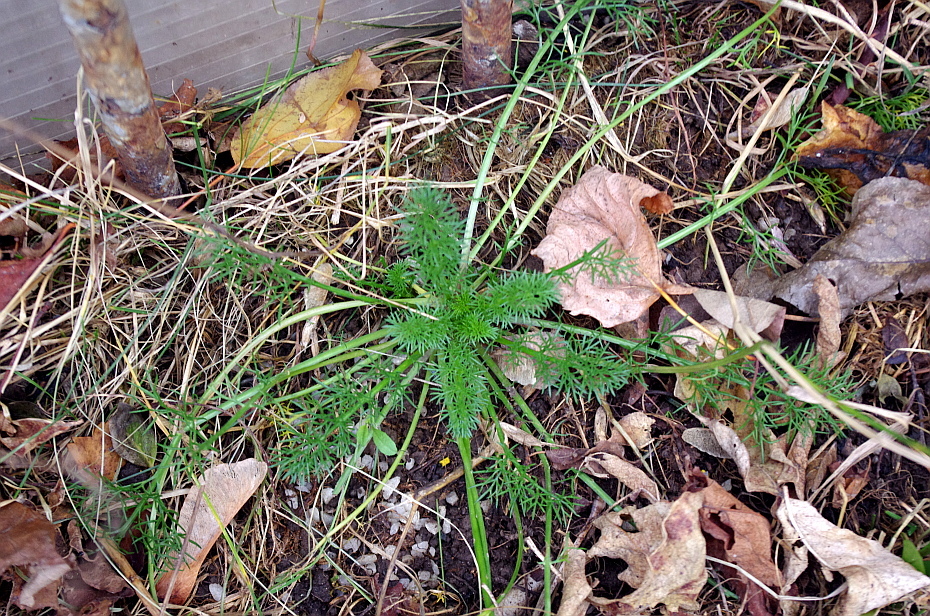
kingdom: Plantae
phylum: Tracheophyta
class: Magnoliopsida
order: Asterales
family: Asteraceae
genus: Tripleurospermum
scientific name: Tripleurospermum inodorum
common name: Scentless mayweed
